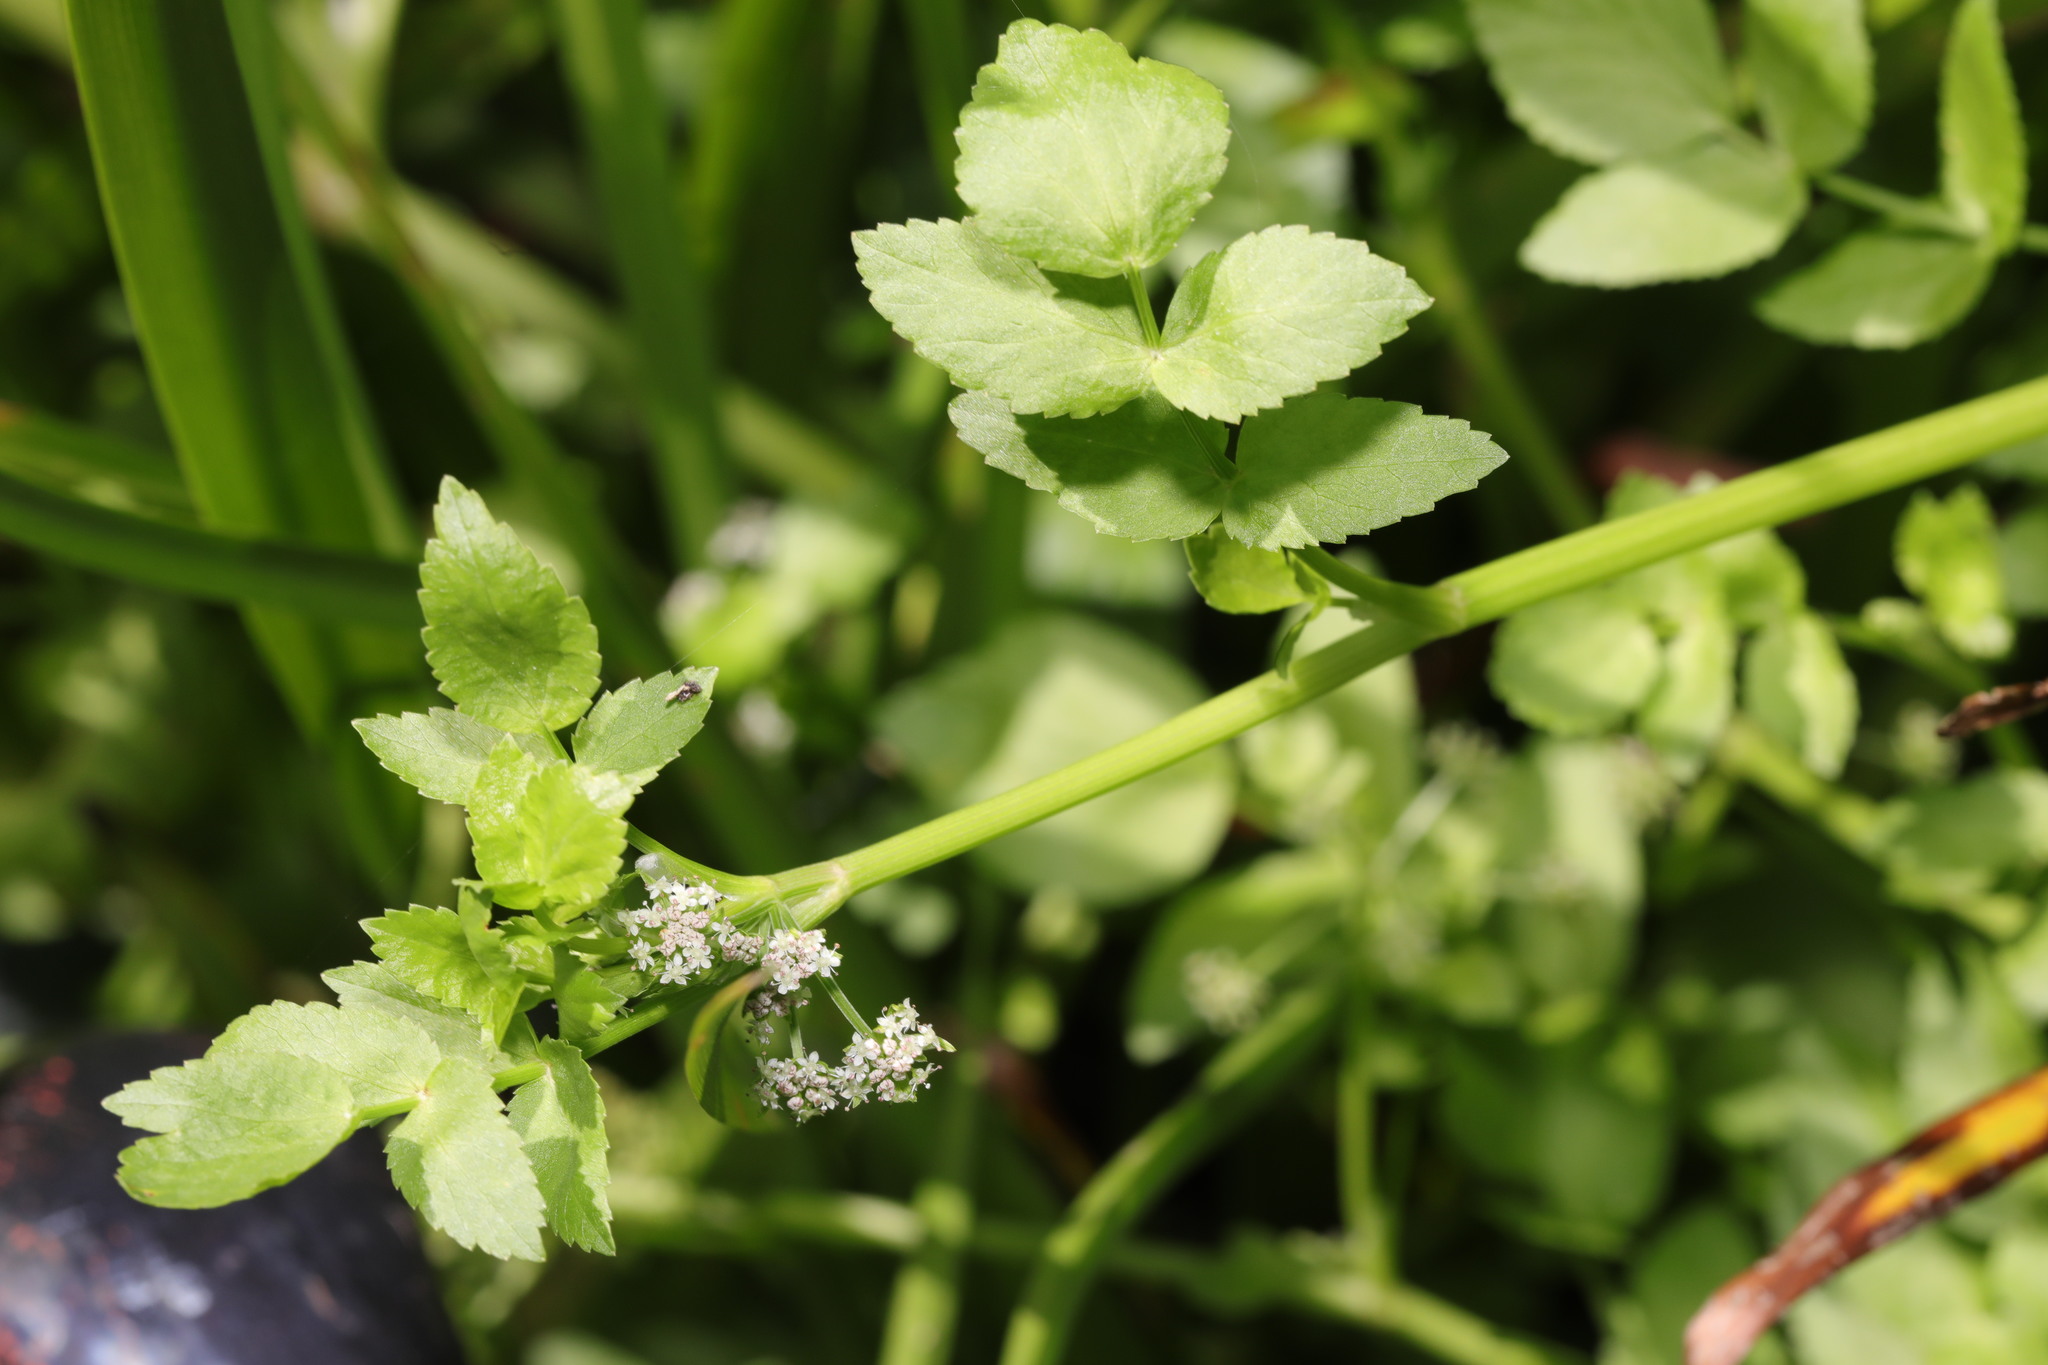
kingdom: Plantae
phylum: Tracheophyta
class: Magnoliopsida
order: Apiales
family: Apiaceae
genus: Helosciadium
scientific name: Helosciadium nodiflorum
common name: Fool's-watercress
